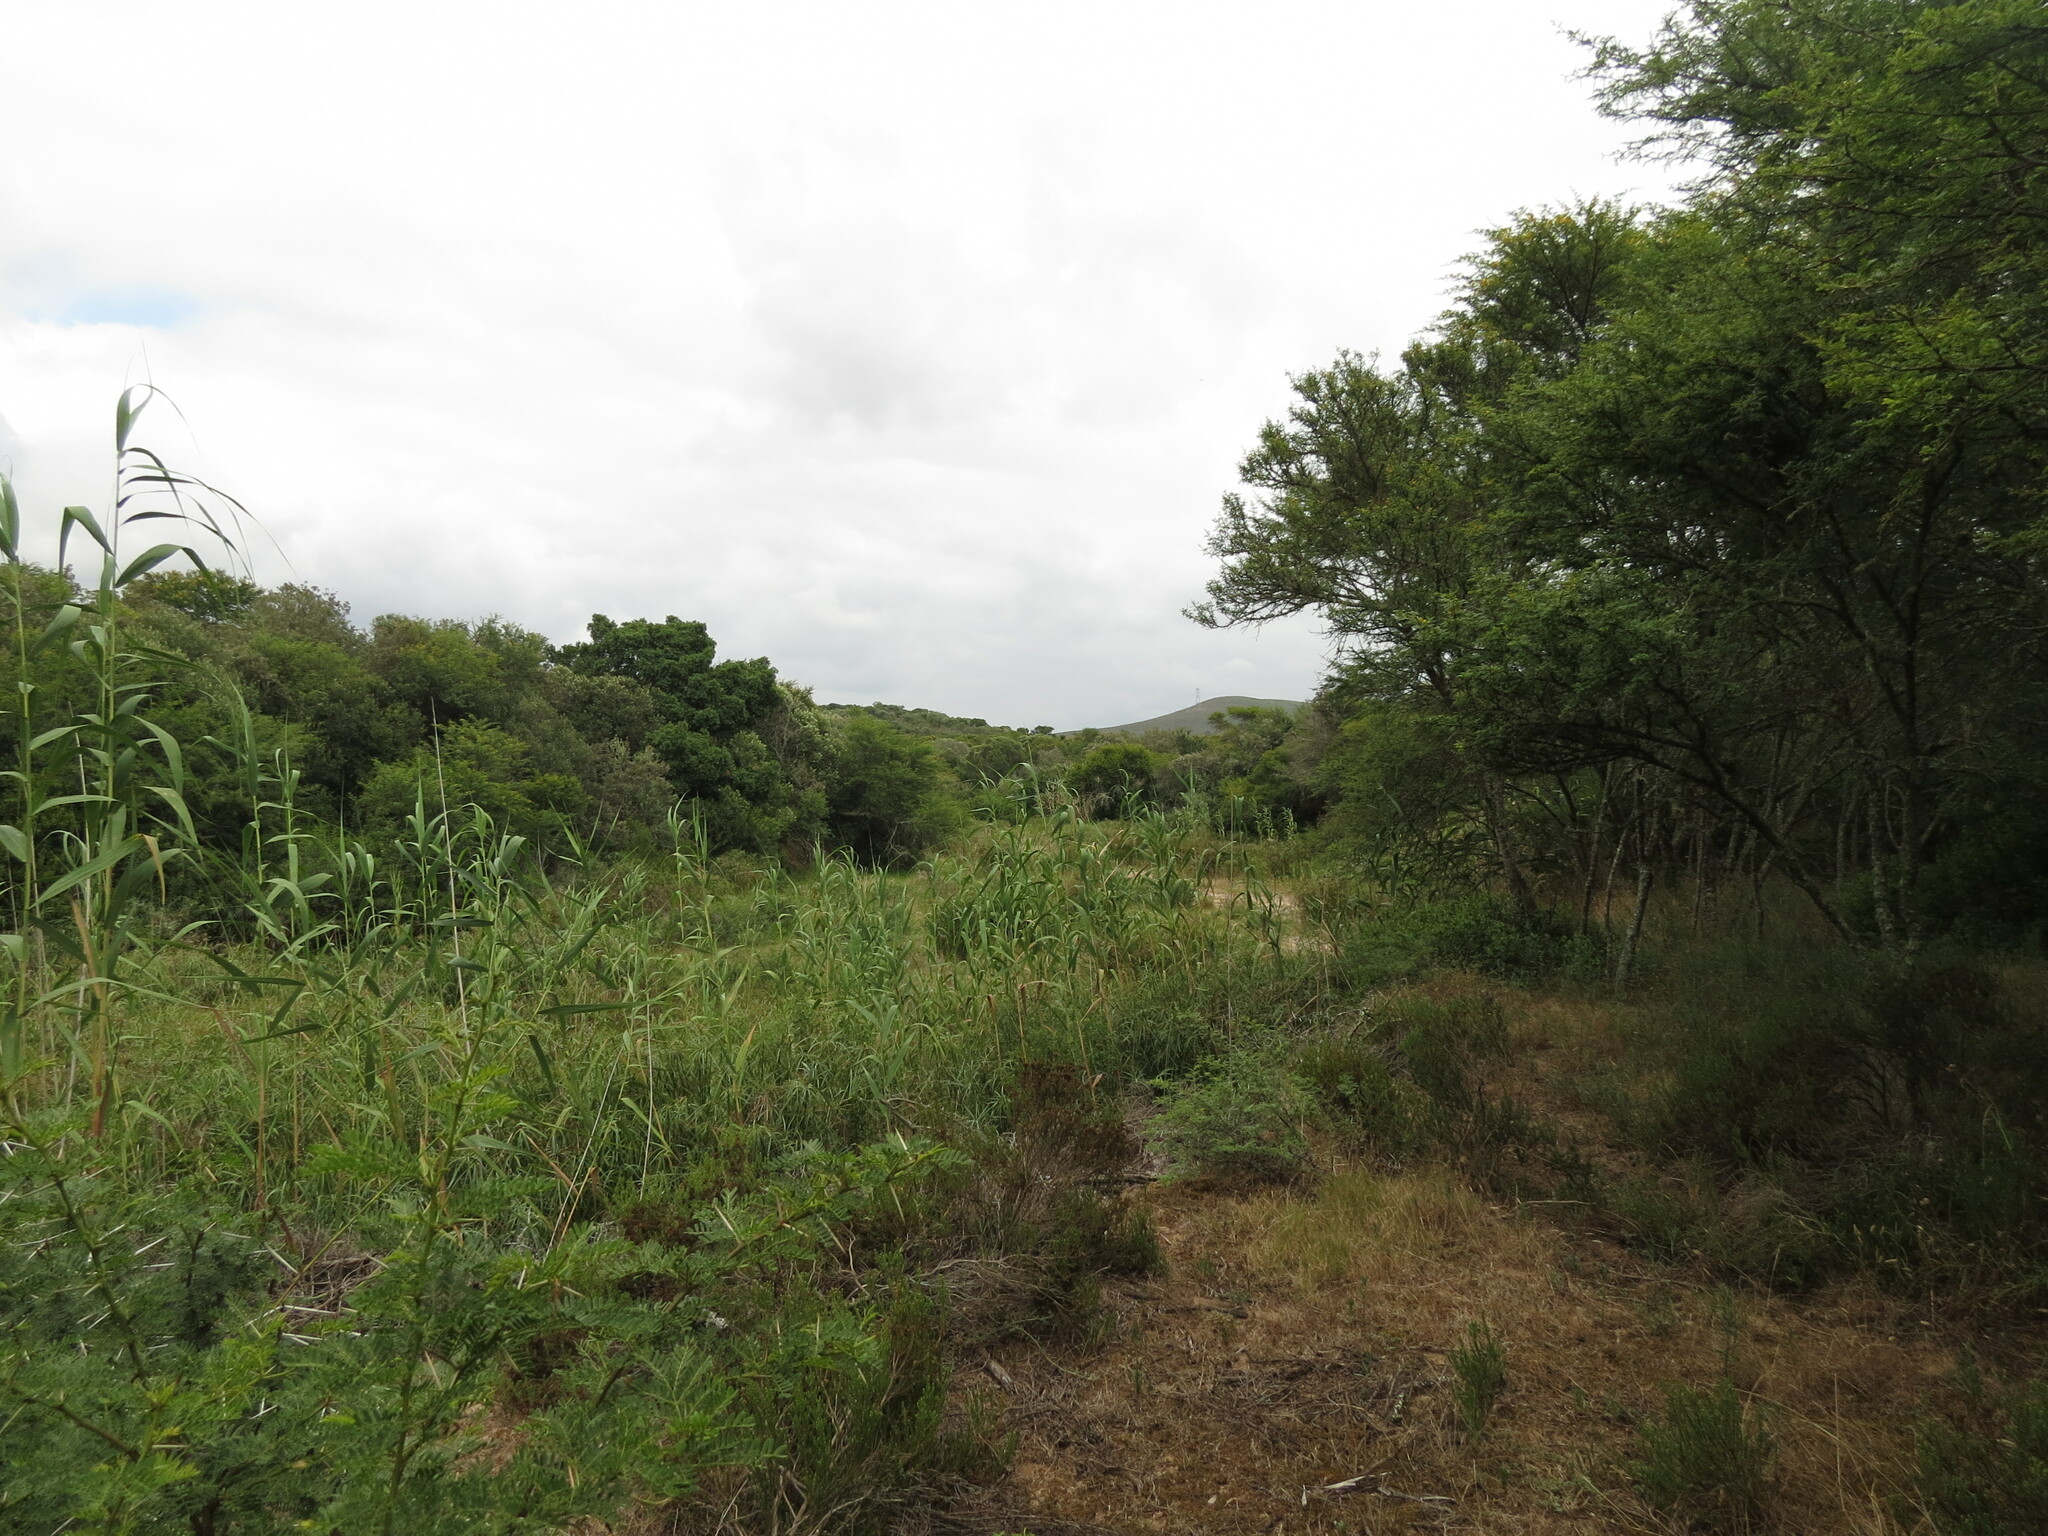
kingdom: Plantae
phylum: Tracheophyta
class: Magnoliopsida
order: Fabales
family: Fabaceae
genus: Vachellia
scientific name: Vachellia karroo
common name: Sweet thorn
